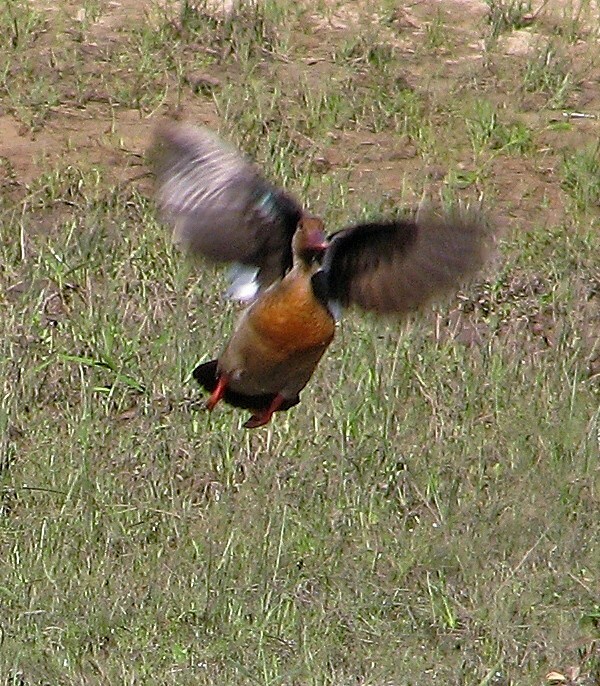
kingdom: Animalia
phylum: Chordata
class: Aves
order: Anseriformes
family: Anatidae
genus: Amazonetta
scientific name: Amazonetta brasiliensis
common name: Brazilian teal
